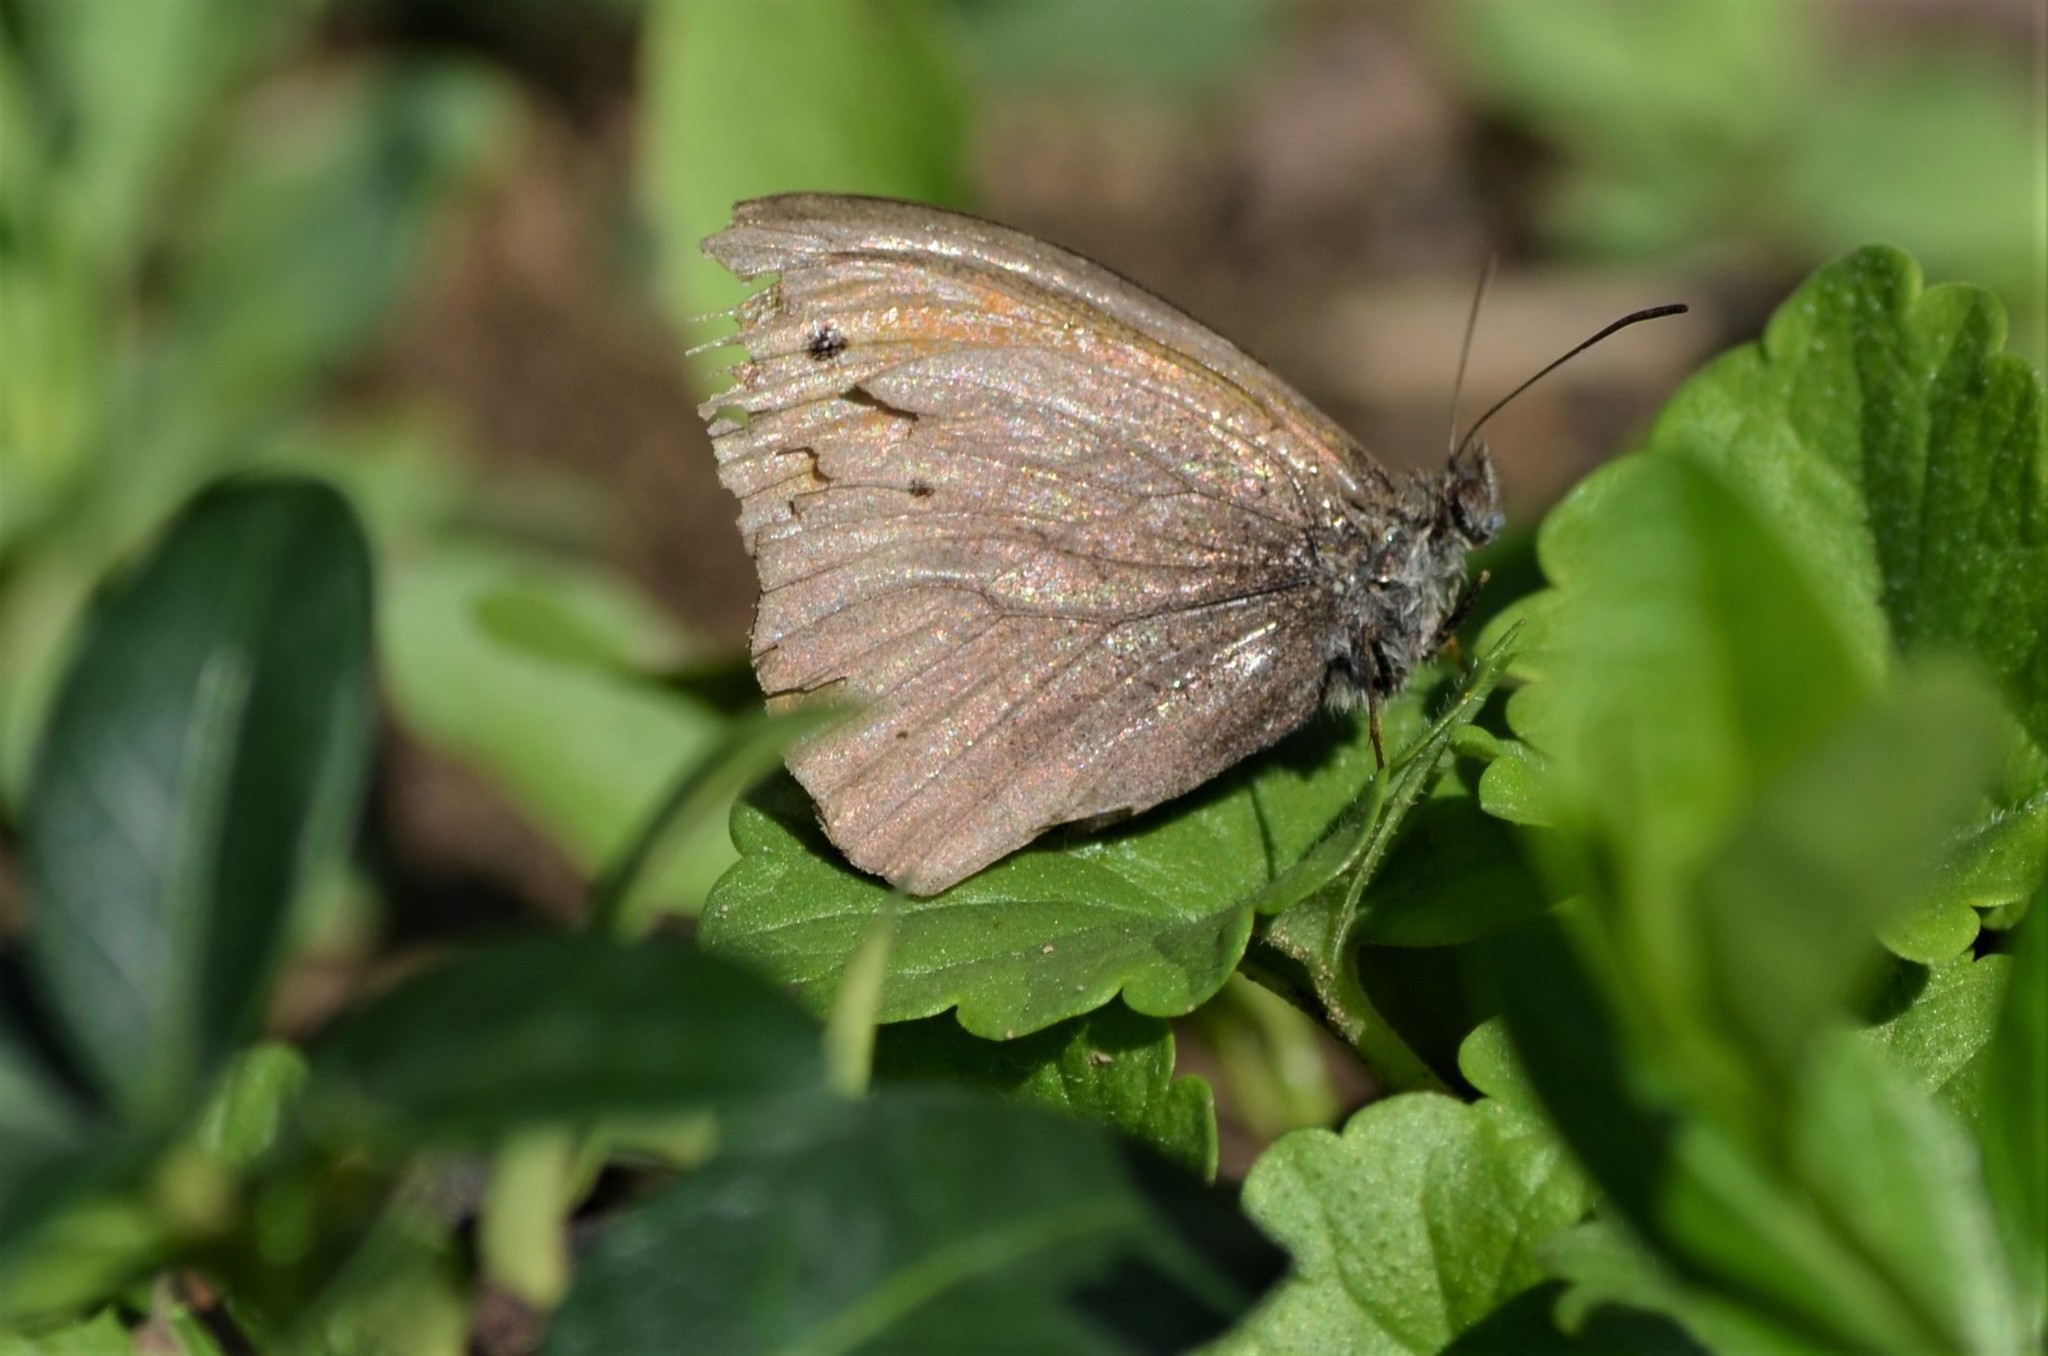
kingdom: Animalia
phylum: Arthropoda
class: Insecta
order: Lepidoptera
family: Nymphalidae
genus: Maniola
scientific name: Maniola jurtina
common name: Meadow brown
